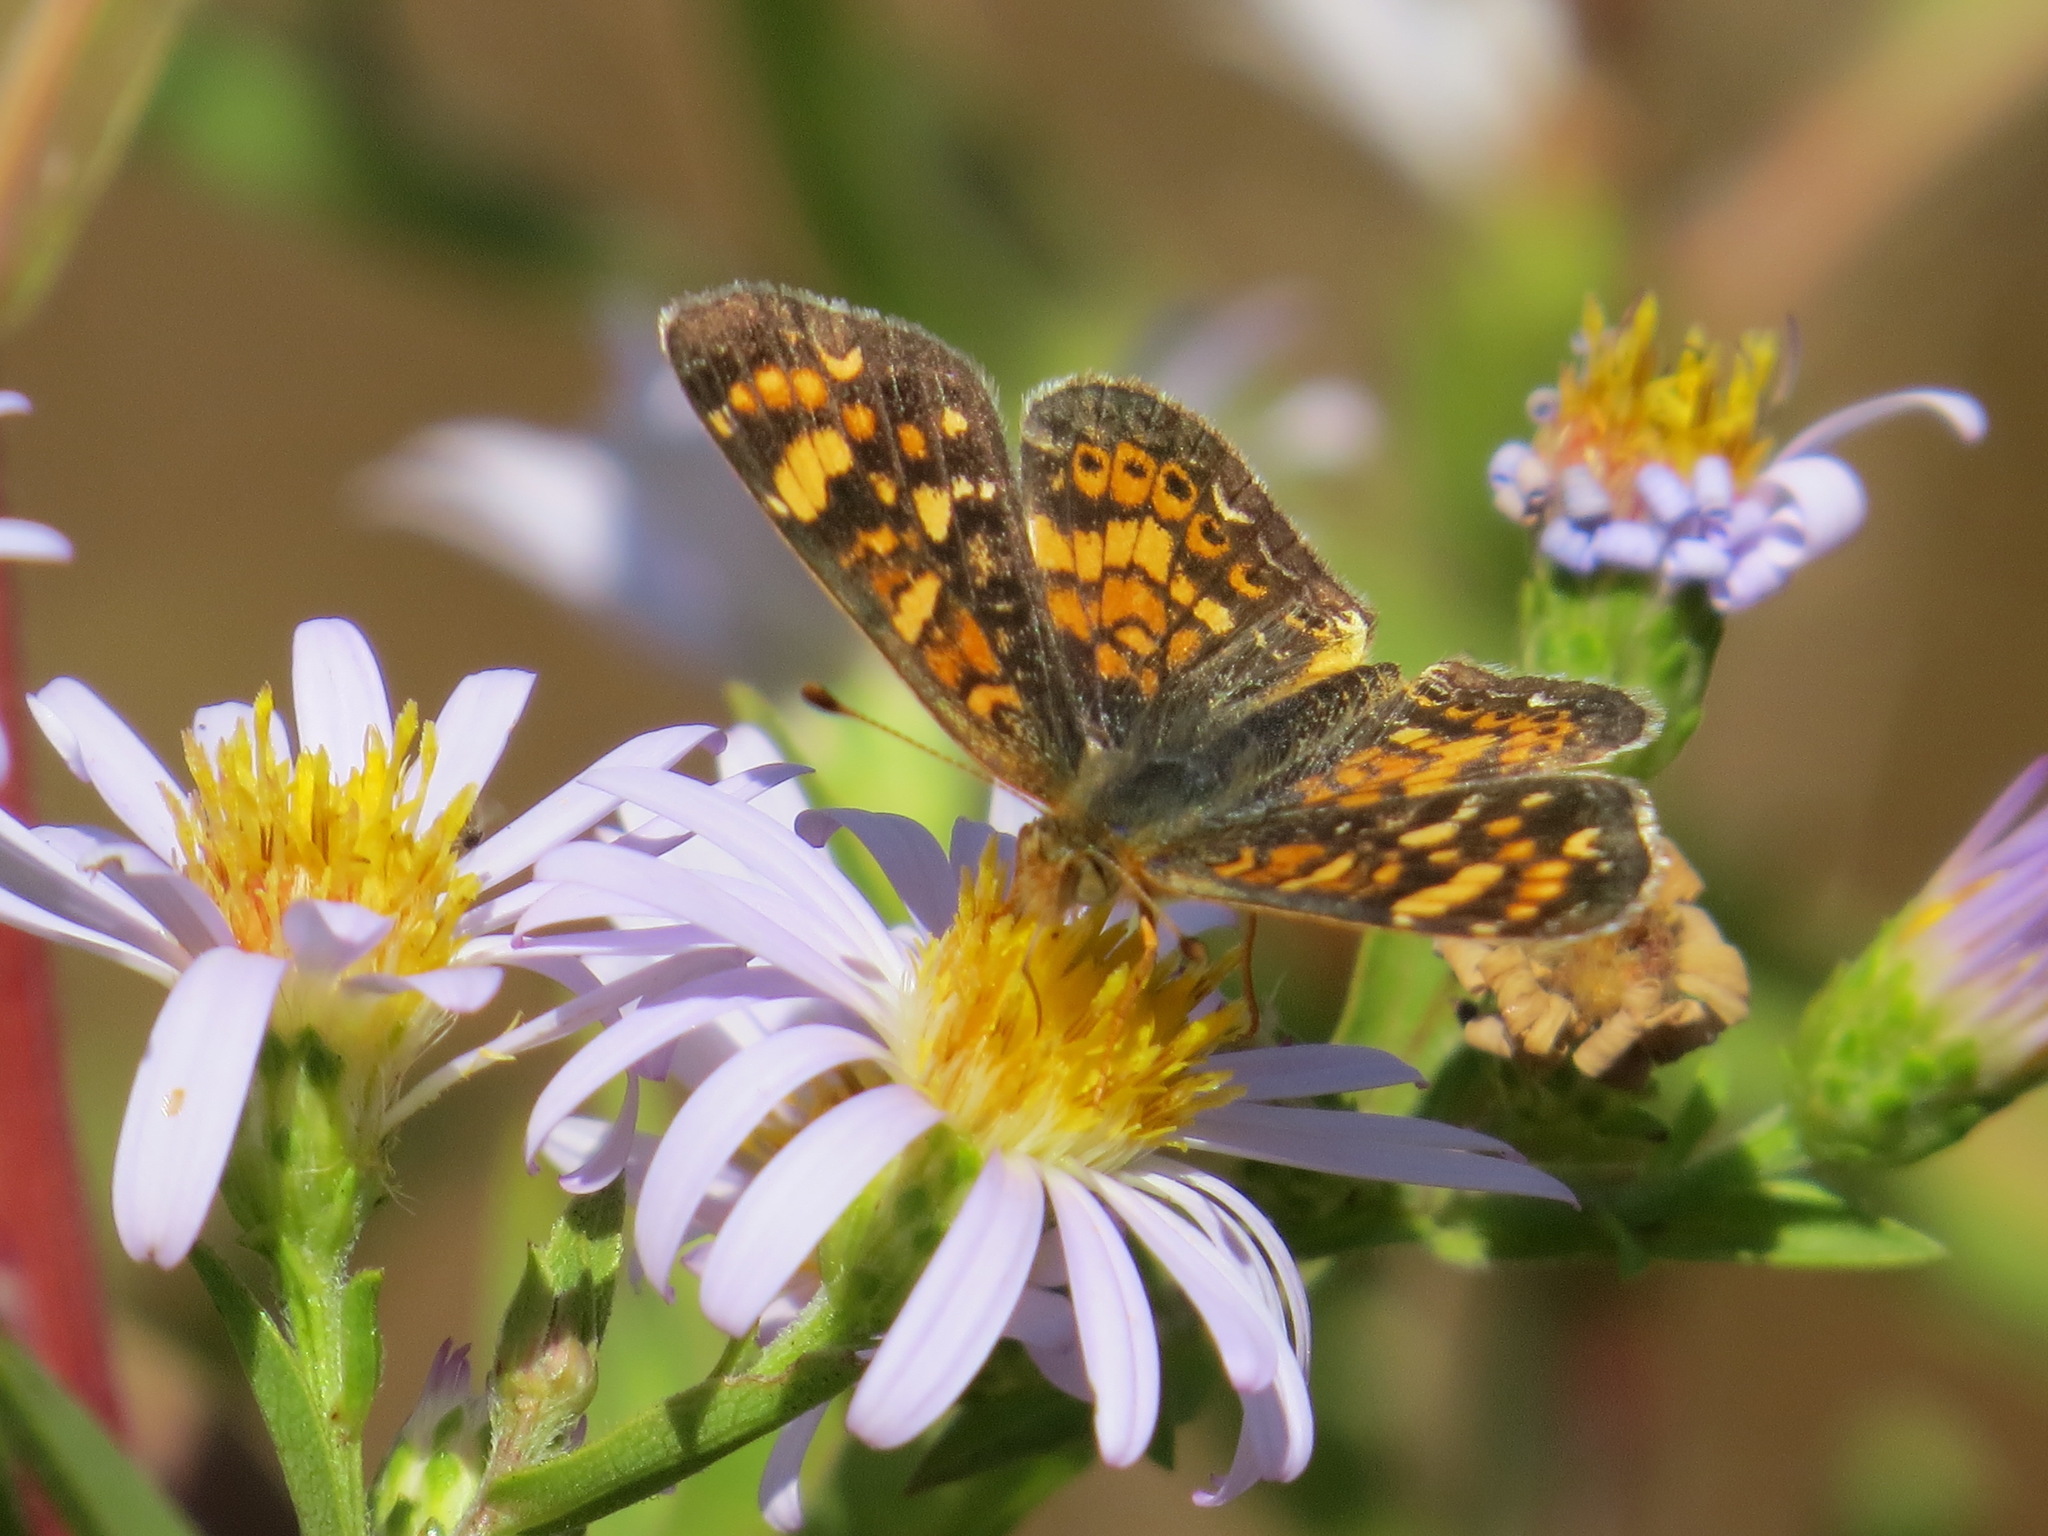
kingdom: Animalia
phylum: Arthropoda
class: Insecta
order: Lepidoptera
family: Nymphalidae
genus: Phyciodes
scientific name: Phyciodes tharos
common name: Pearl crescent
